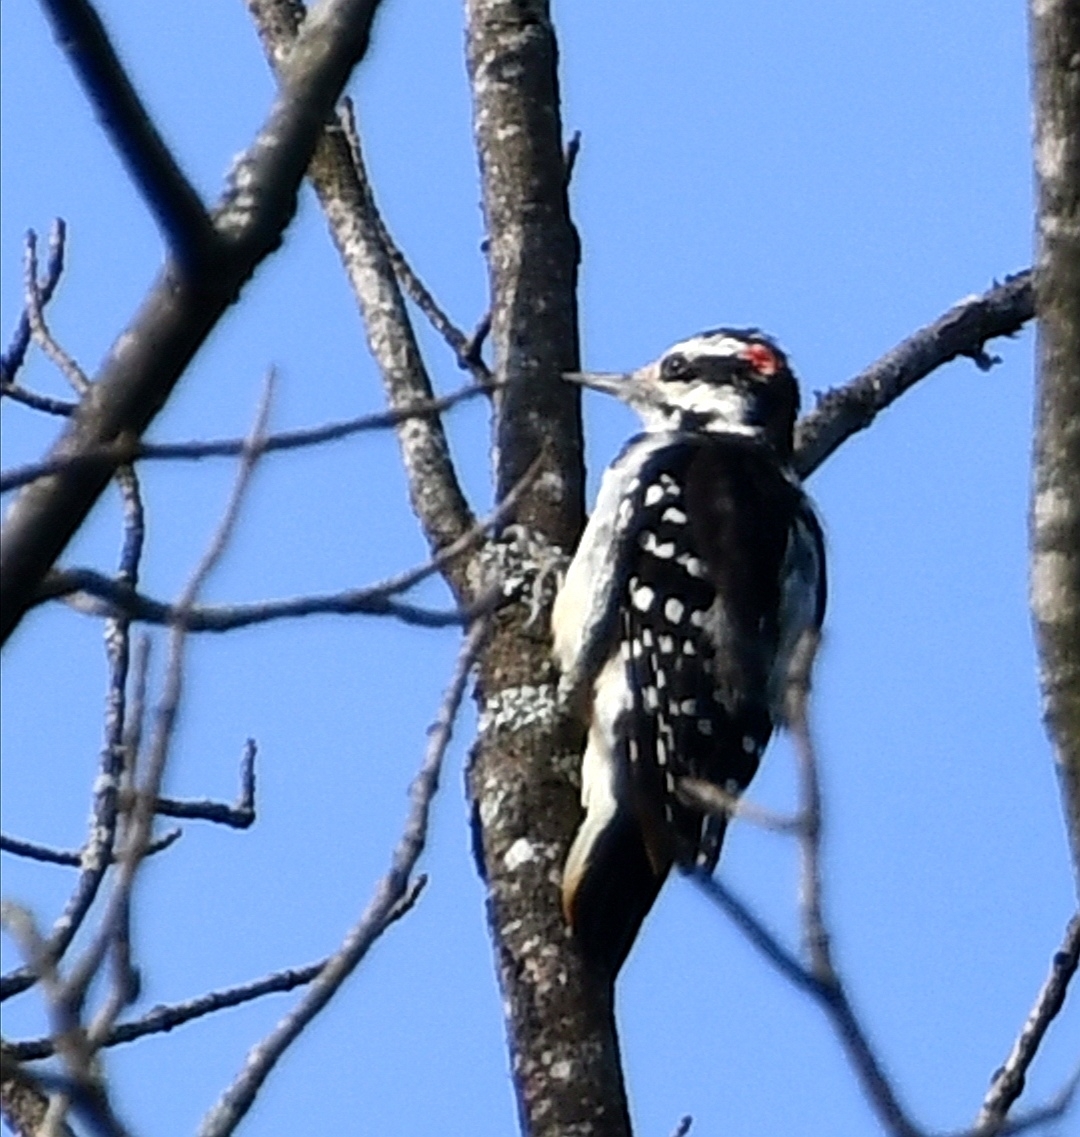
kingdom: Animalia
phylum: Chordata
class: Aves
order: Piciformes
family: Picidae
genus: Leuconotopicus
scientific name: Leuconotopicus villosus
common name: Hairy woodpecker
